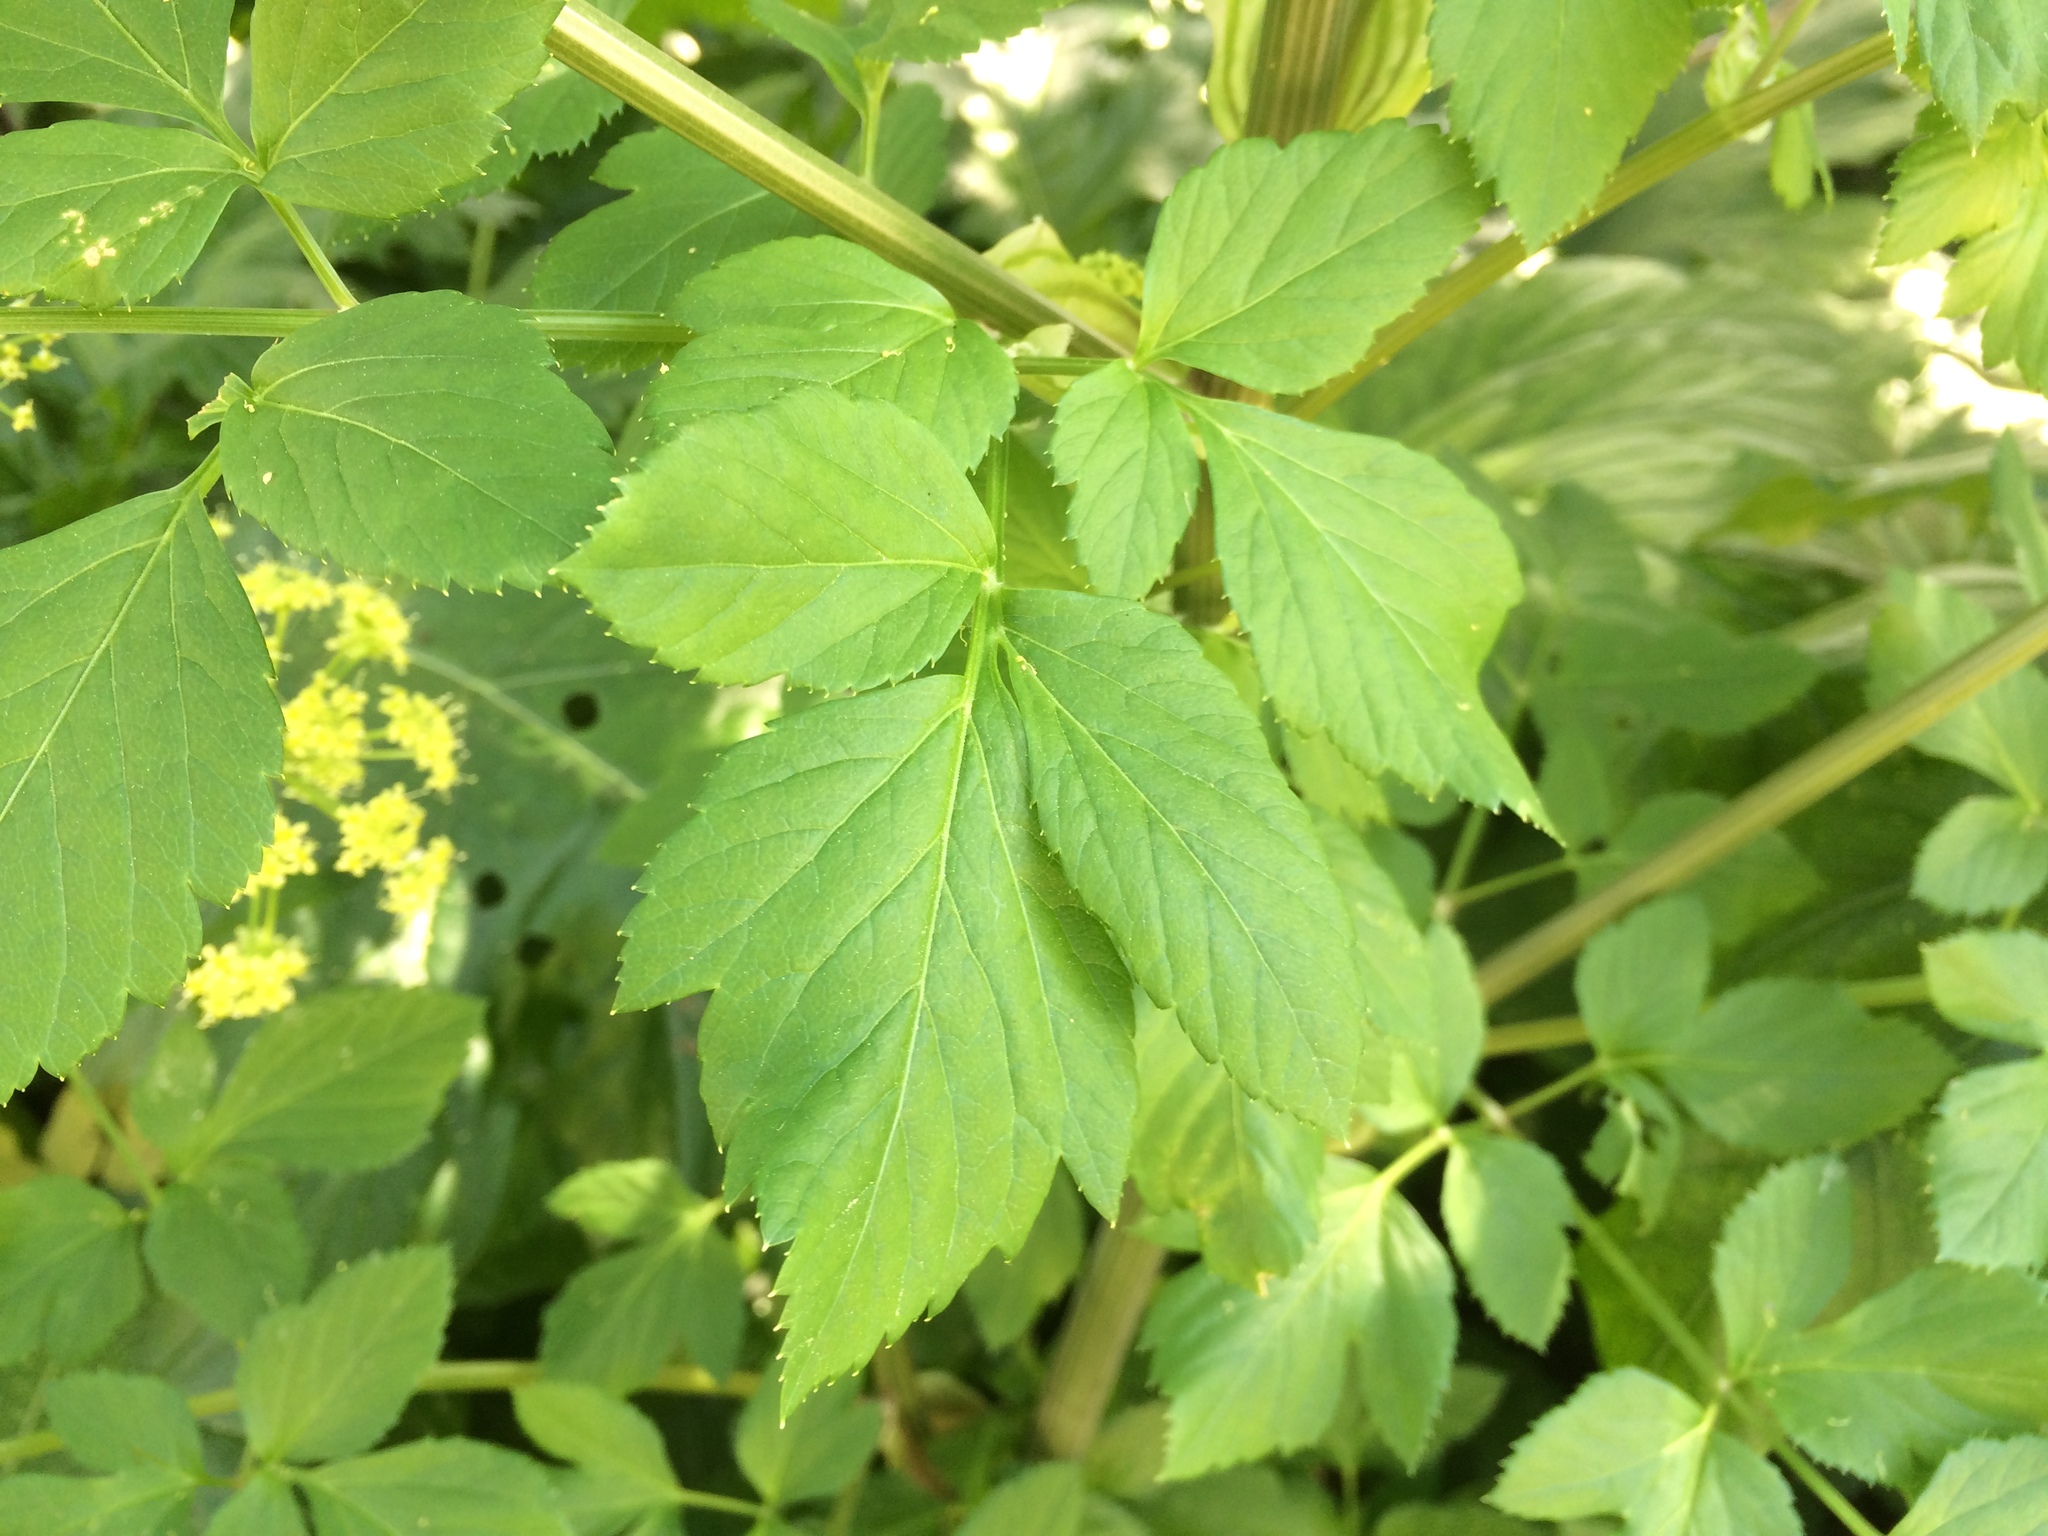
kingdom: Plantae
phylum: Tracheophyta
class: Magnoliopsida
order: Apiales
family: Apiaceae
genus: Smyrnium
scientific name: Smyrnium olusatrum
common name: Alexanders
